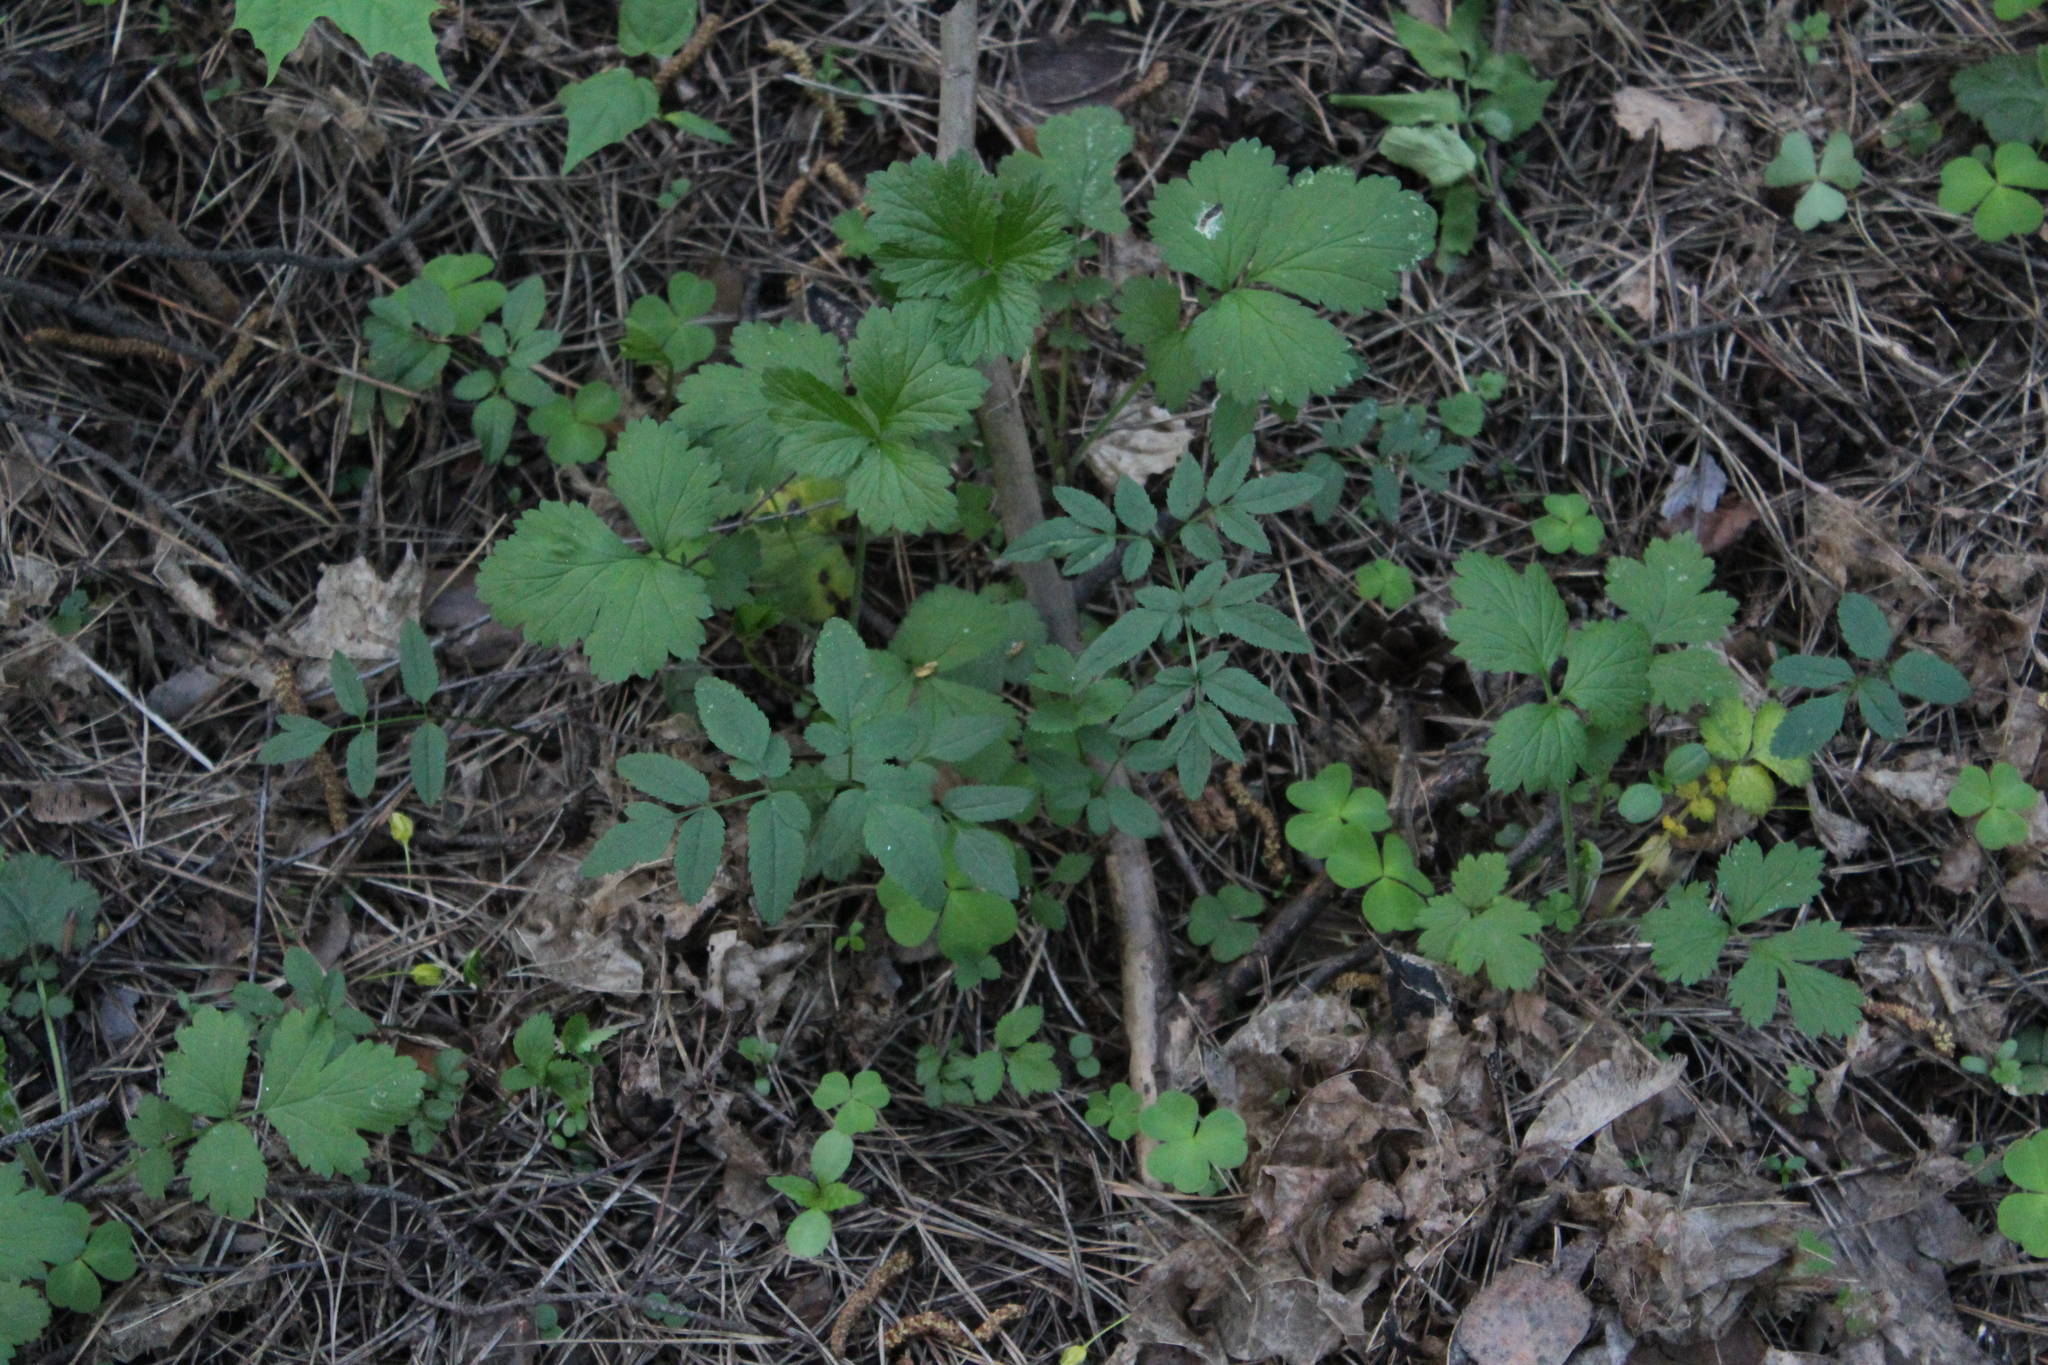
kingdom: Plantae
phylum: Tracheophyta
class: Magnoliopsida
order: Apiales
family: Apiaceae
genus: Angelica
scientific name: Angelica sylvestris
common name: Wild angelica
